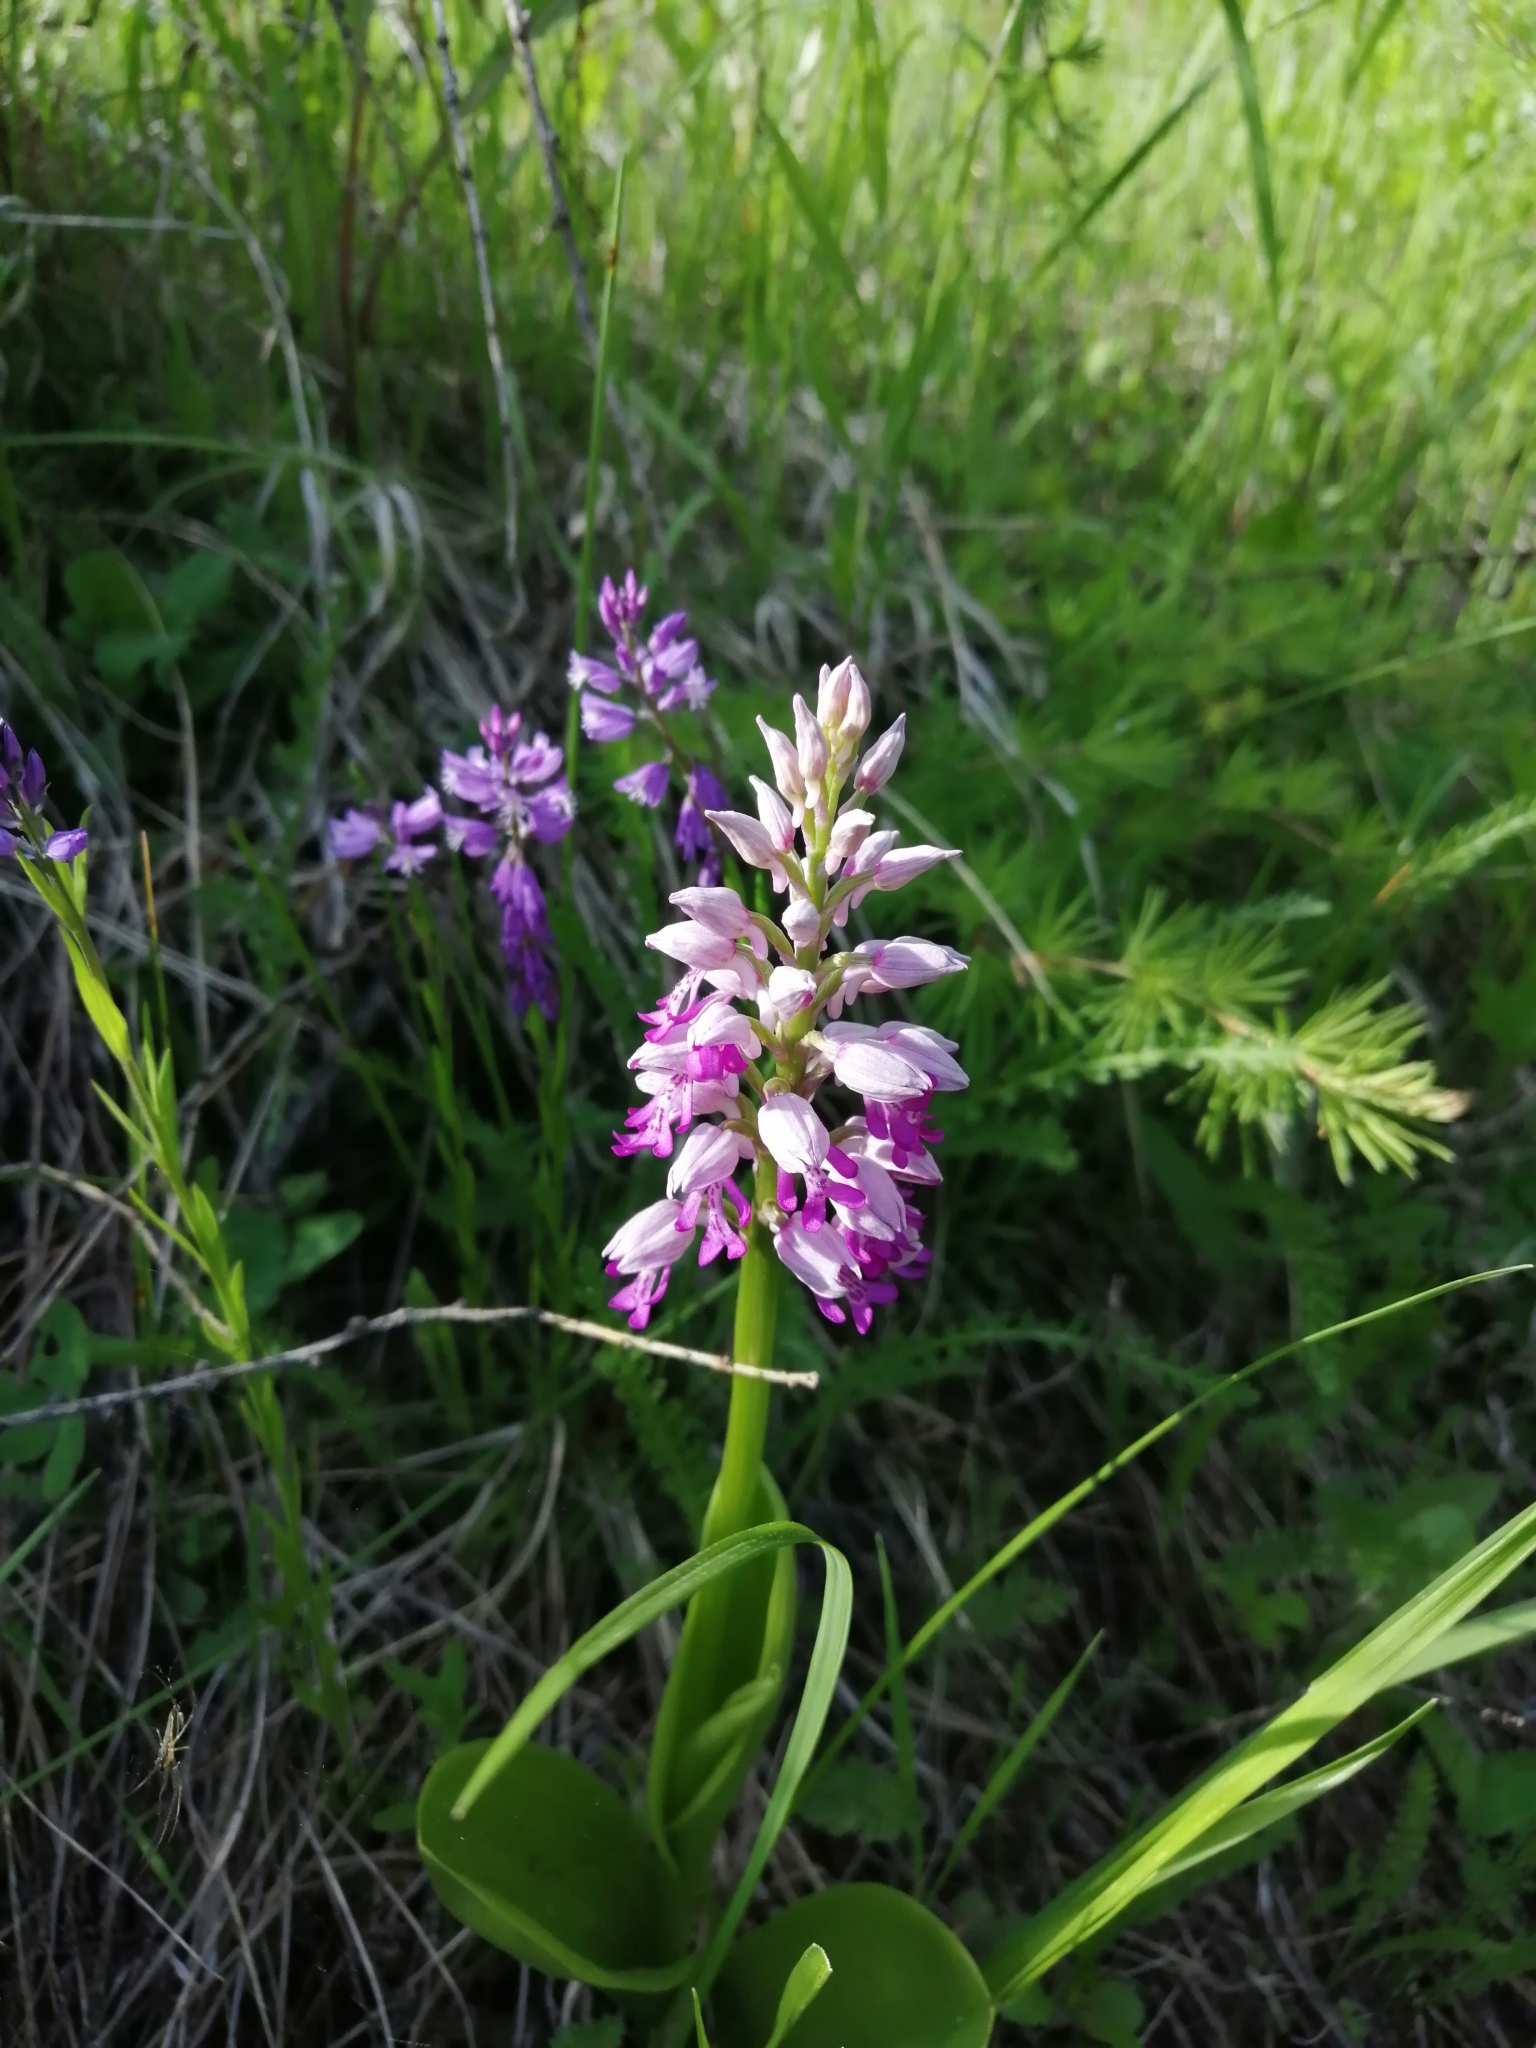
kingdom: Plantae
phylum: Tracheophyta
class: Liliopsida
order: Asparagales
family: Orchidaceae
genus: Orchis
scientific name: Orchis militaris
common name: Military orchid
